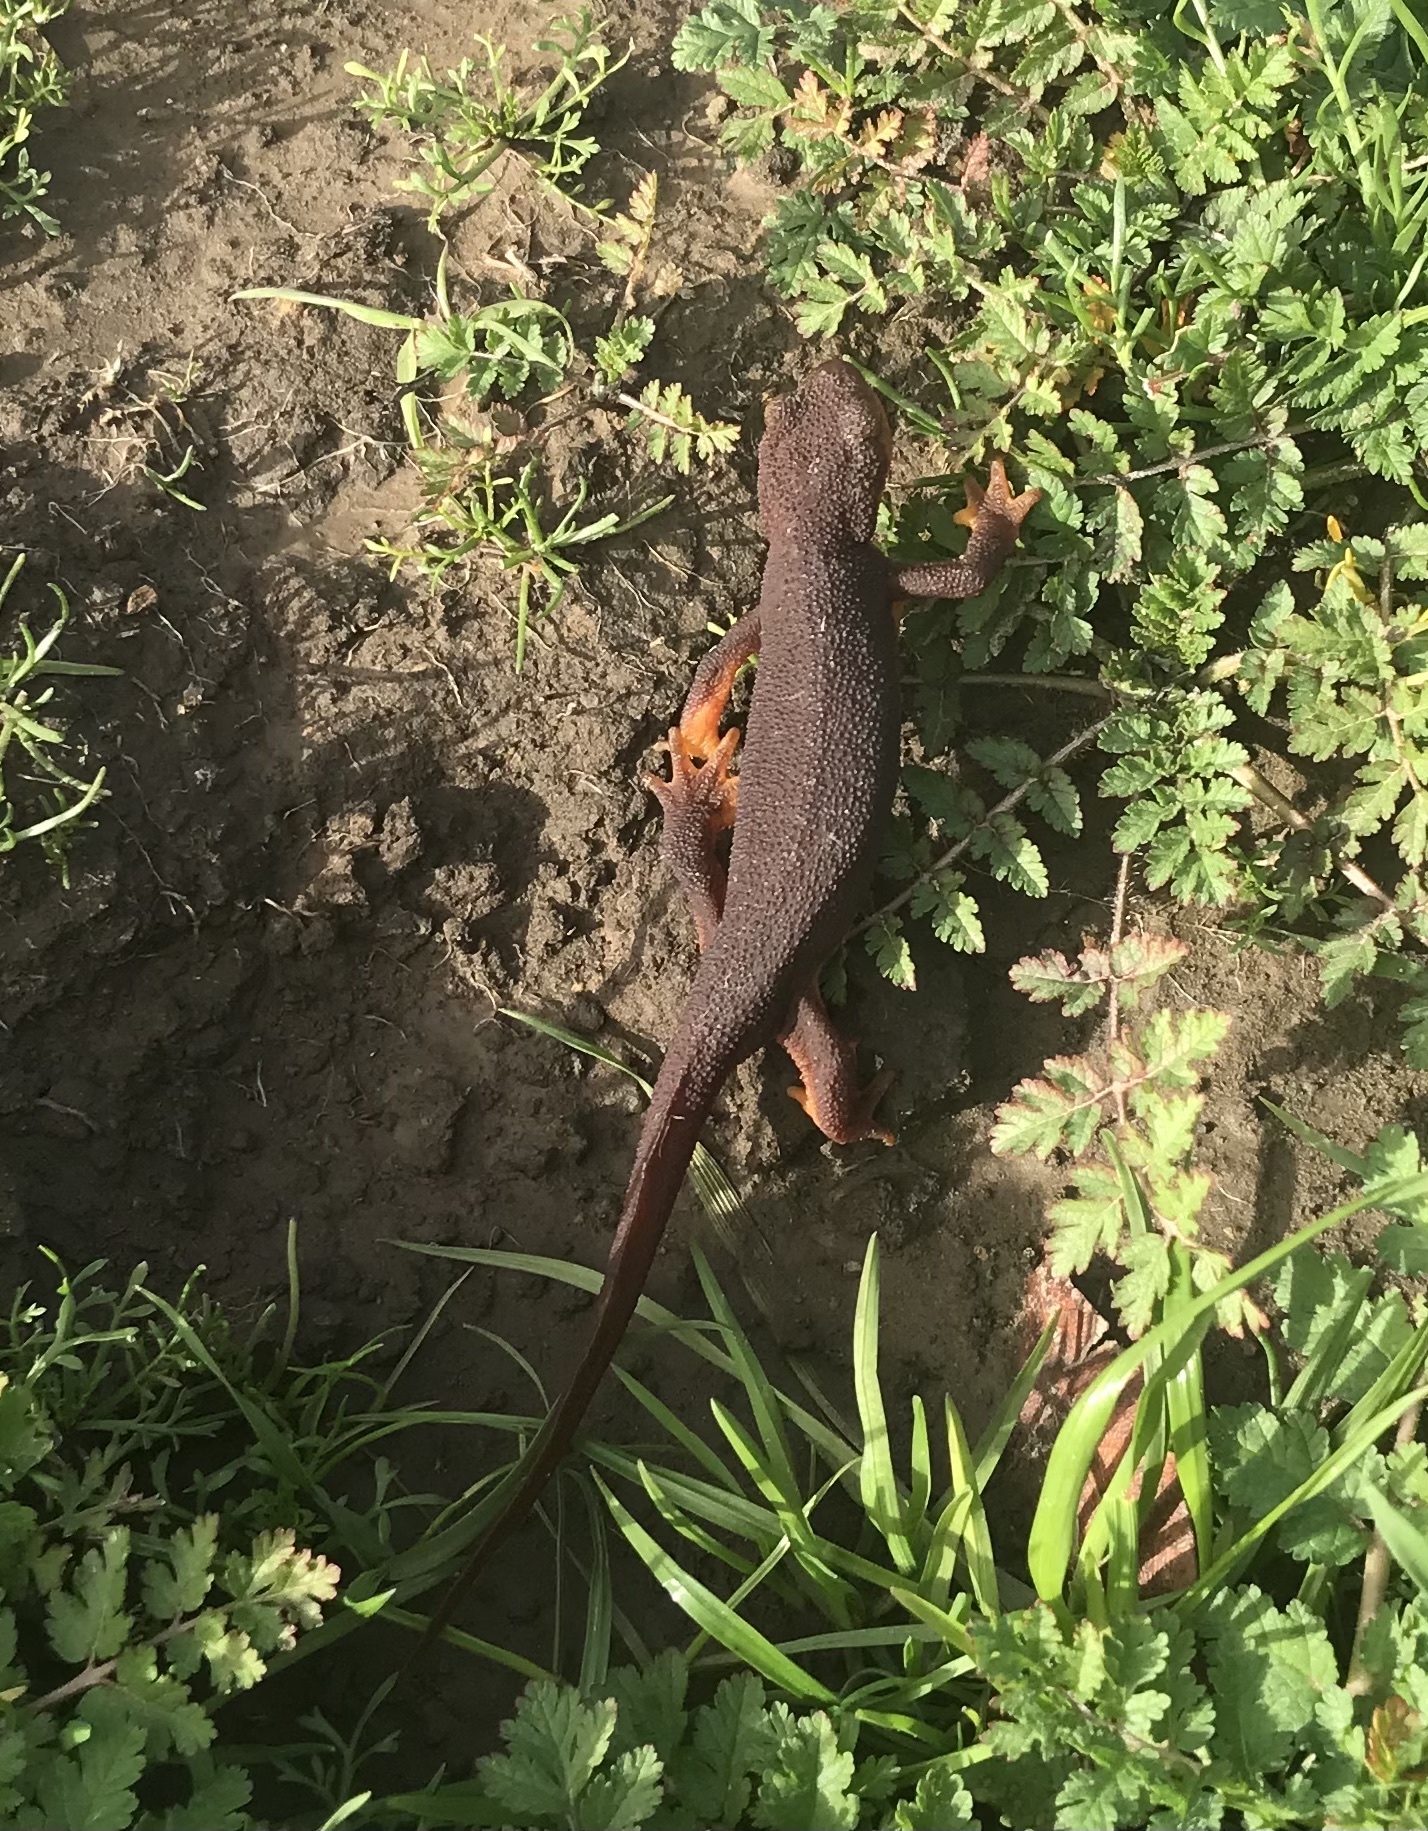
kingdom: Animalia
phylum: Chordata
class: Amphibia
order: Caudata
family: Salamandridae
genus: Taricha
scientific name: Taricha torosa
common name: California newt
